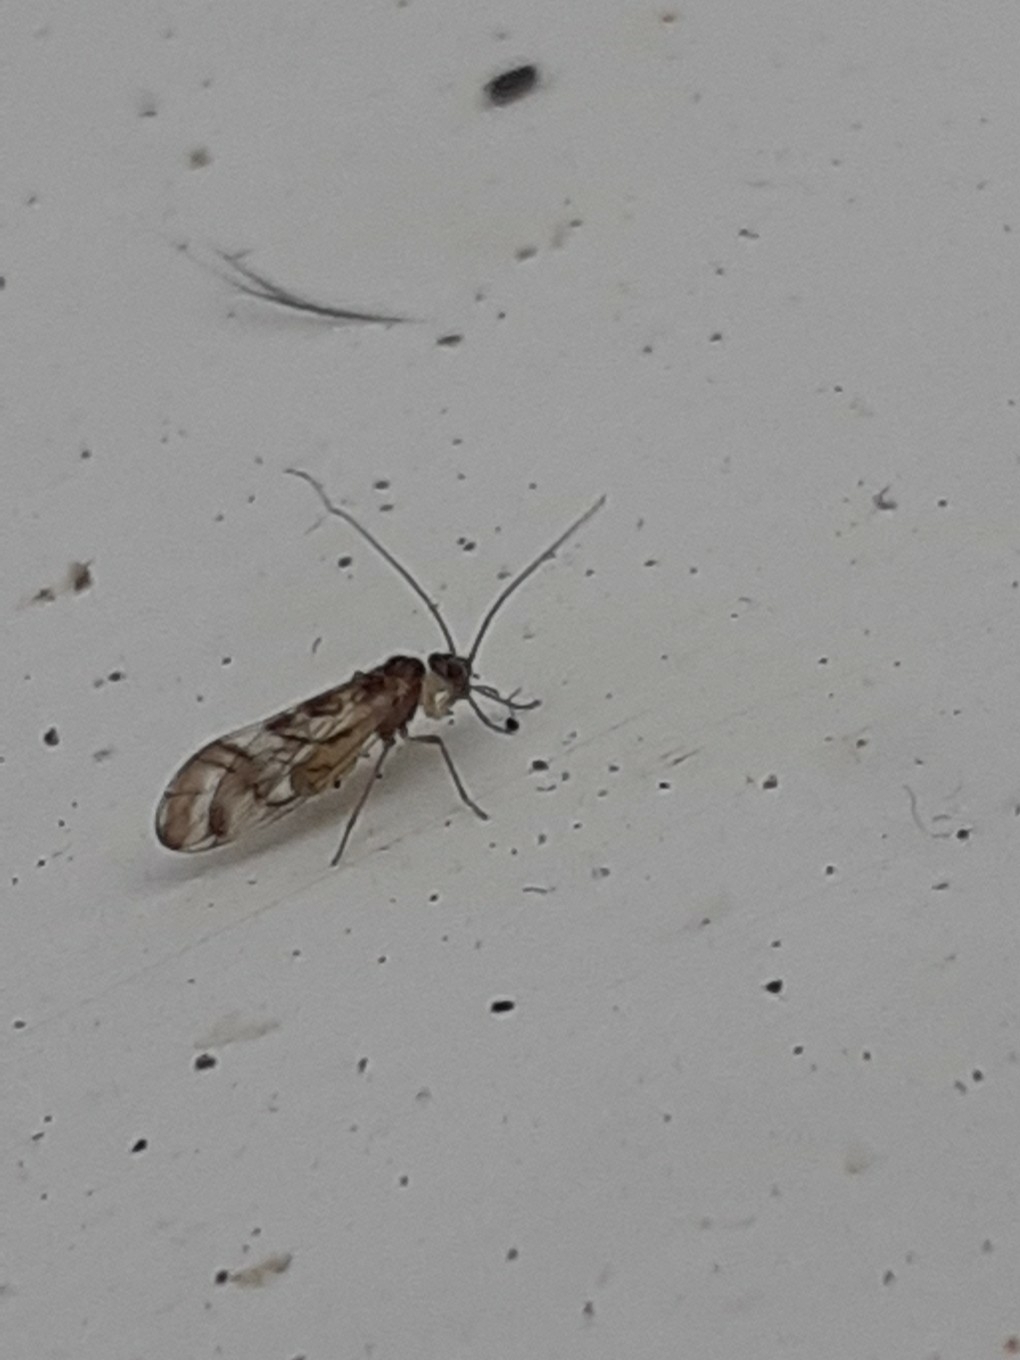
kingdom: Animalia
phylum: Arthropoda
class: Insecta
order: Psocodea
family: Stenopsocidae
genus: Graphopsocus
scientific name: Graphopsocus cruciatus
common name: Lizard bark louse
